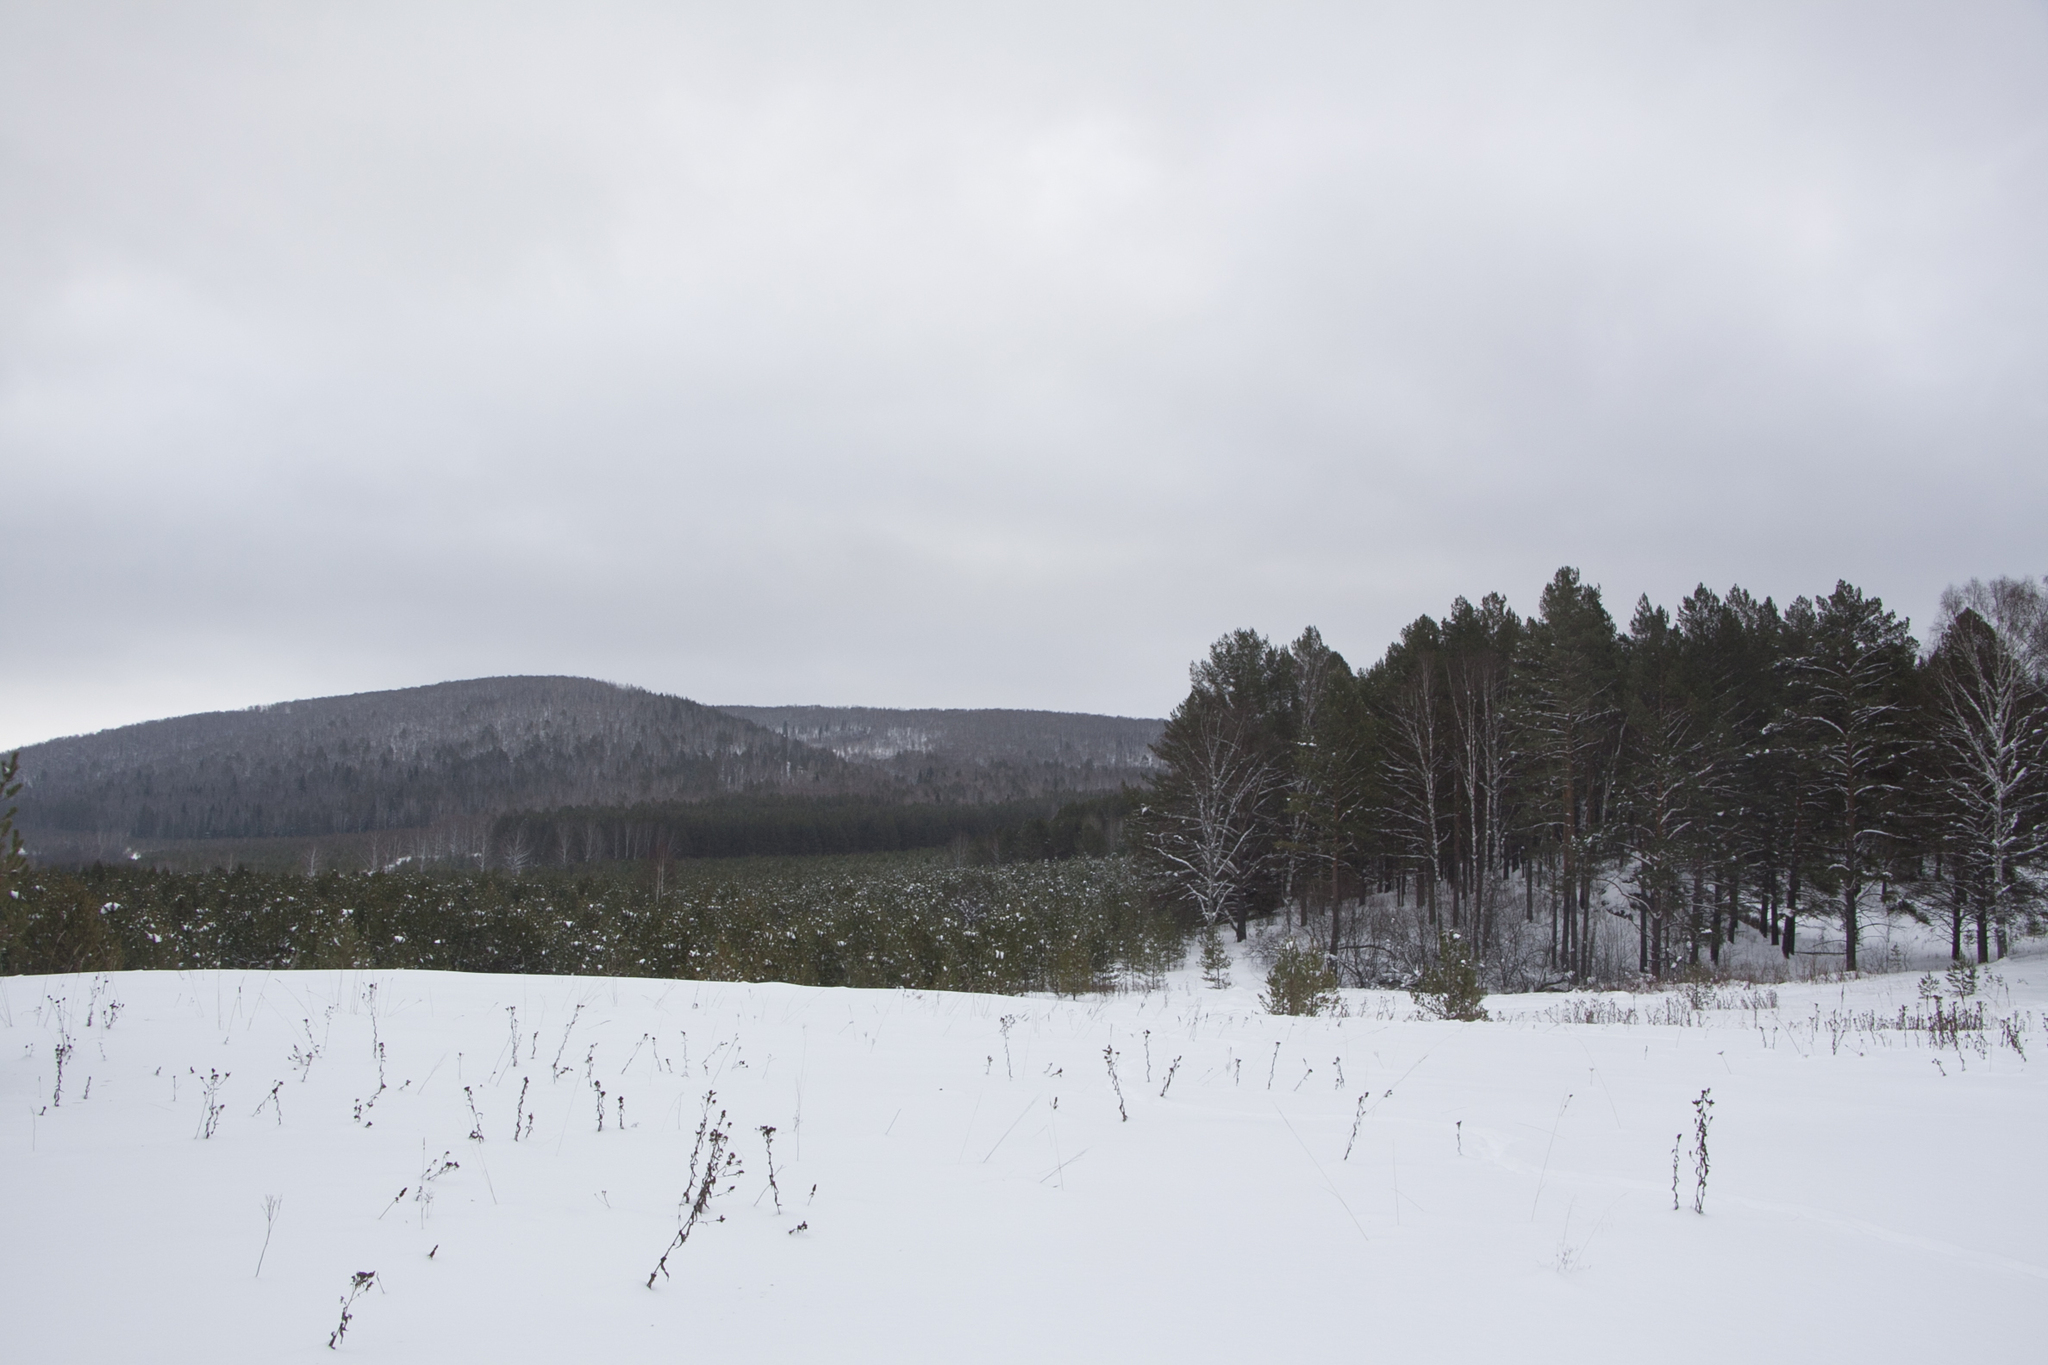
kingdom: Plantae
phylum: Tracheophyta
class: Pinopsida
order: Pinales
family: Pinaceae
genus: Pinus
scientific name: Pinus sylvestris
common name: Scots pine
